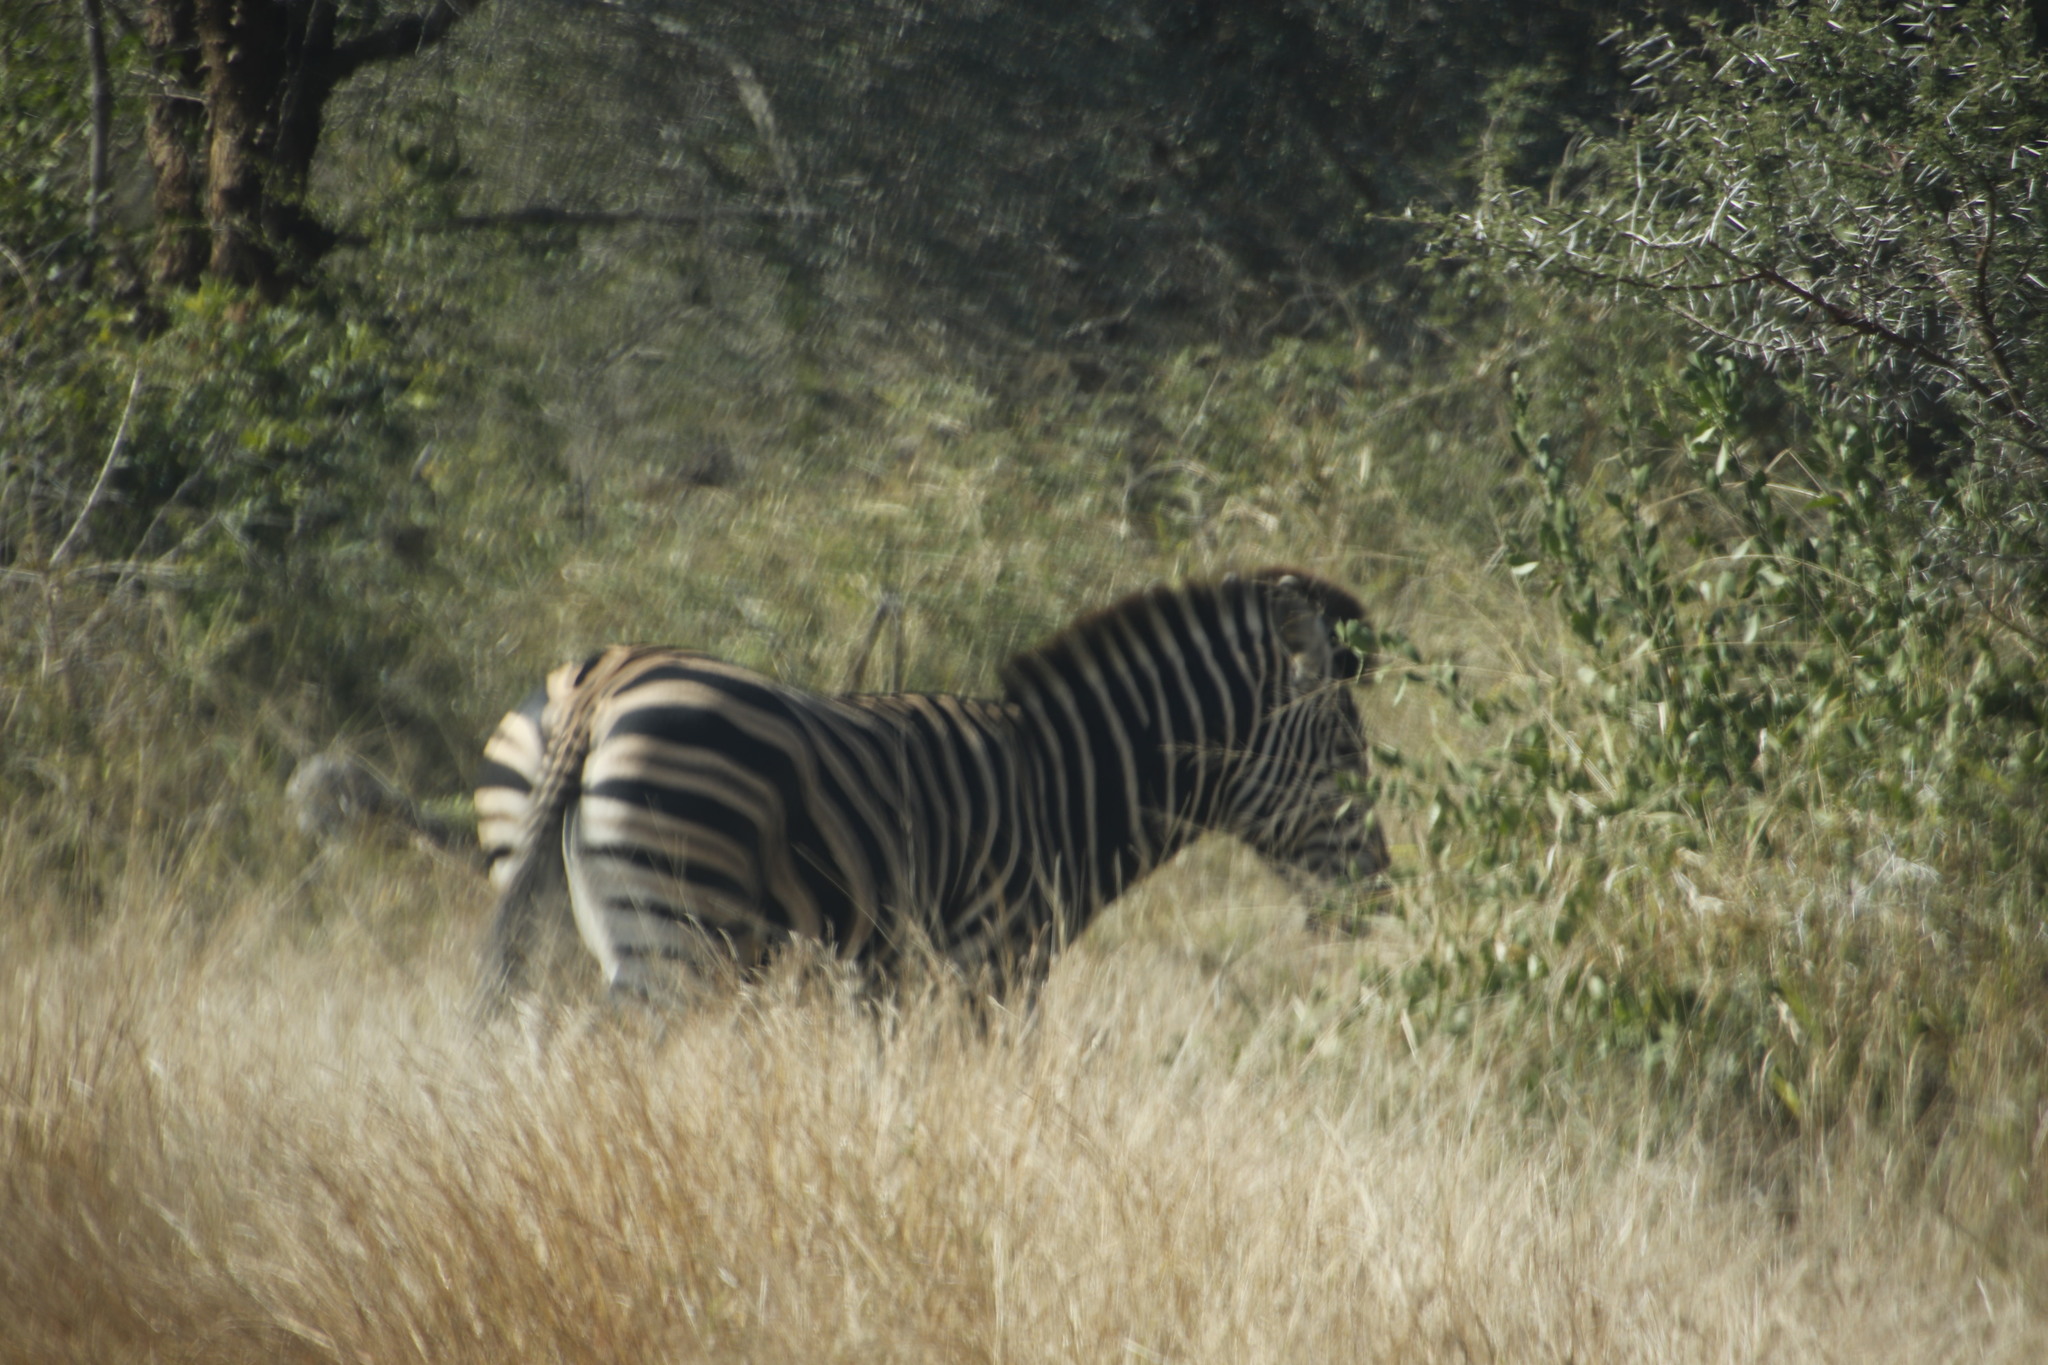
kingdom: Animalia
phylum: Chordata
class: Mammalia
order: Perissodactyla
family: Equidae
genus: Equus
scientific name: Equus quagga
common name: Plains zebra
